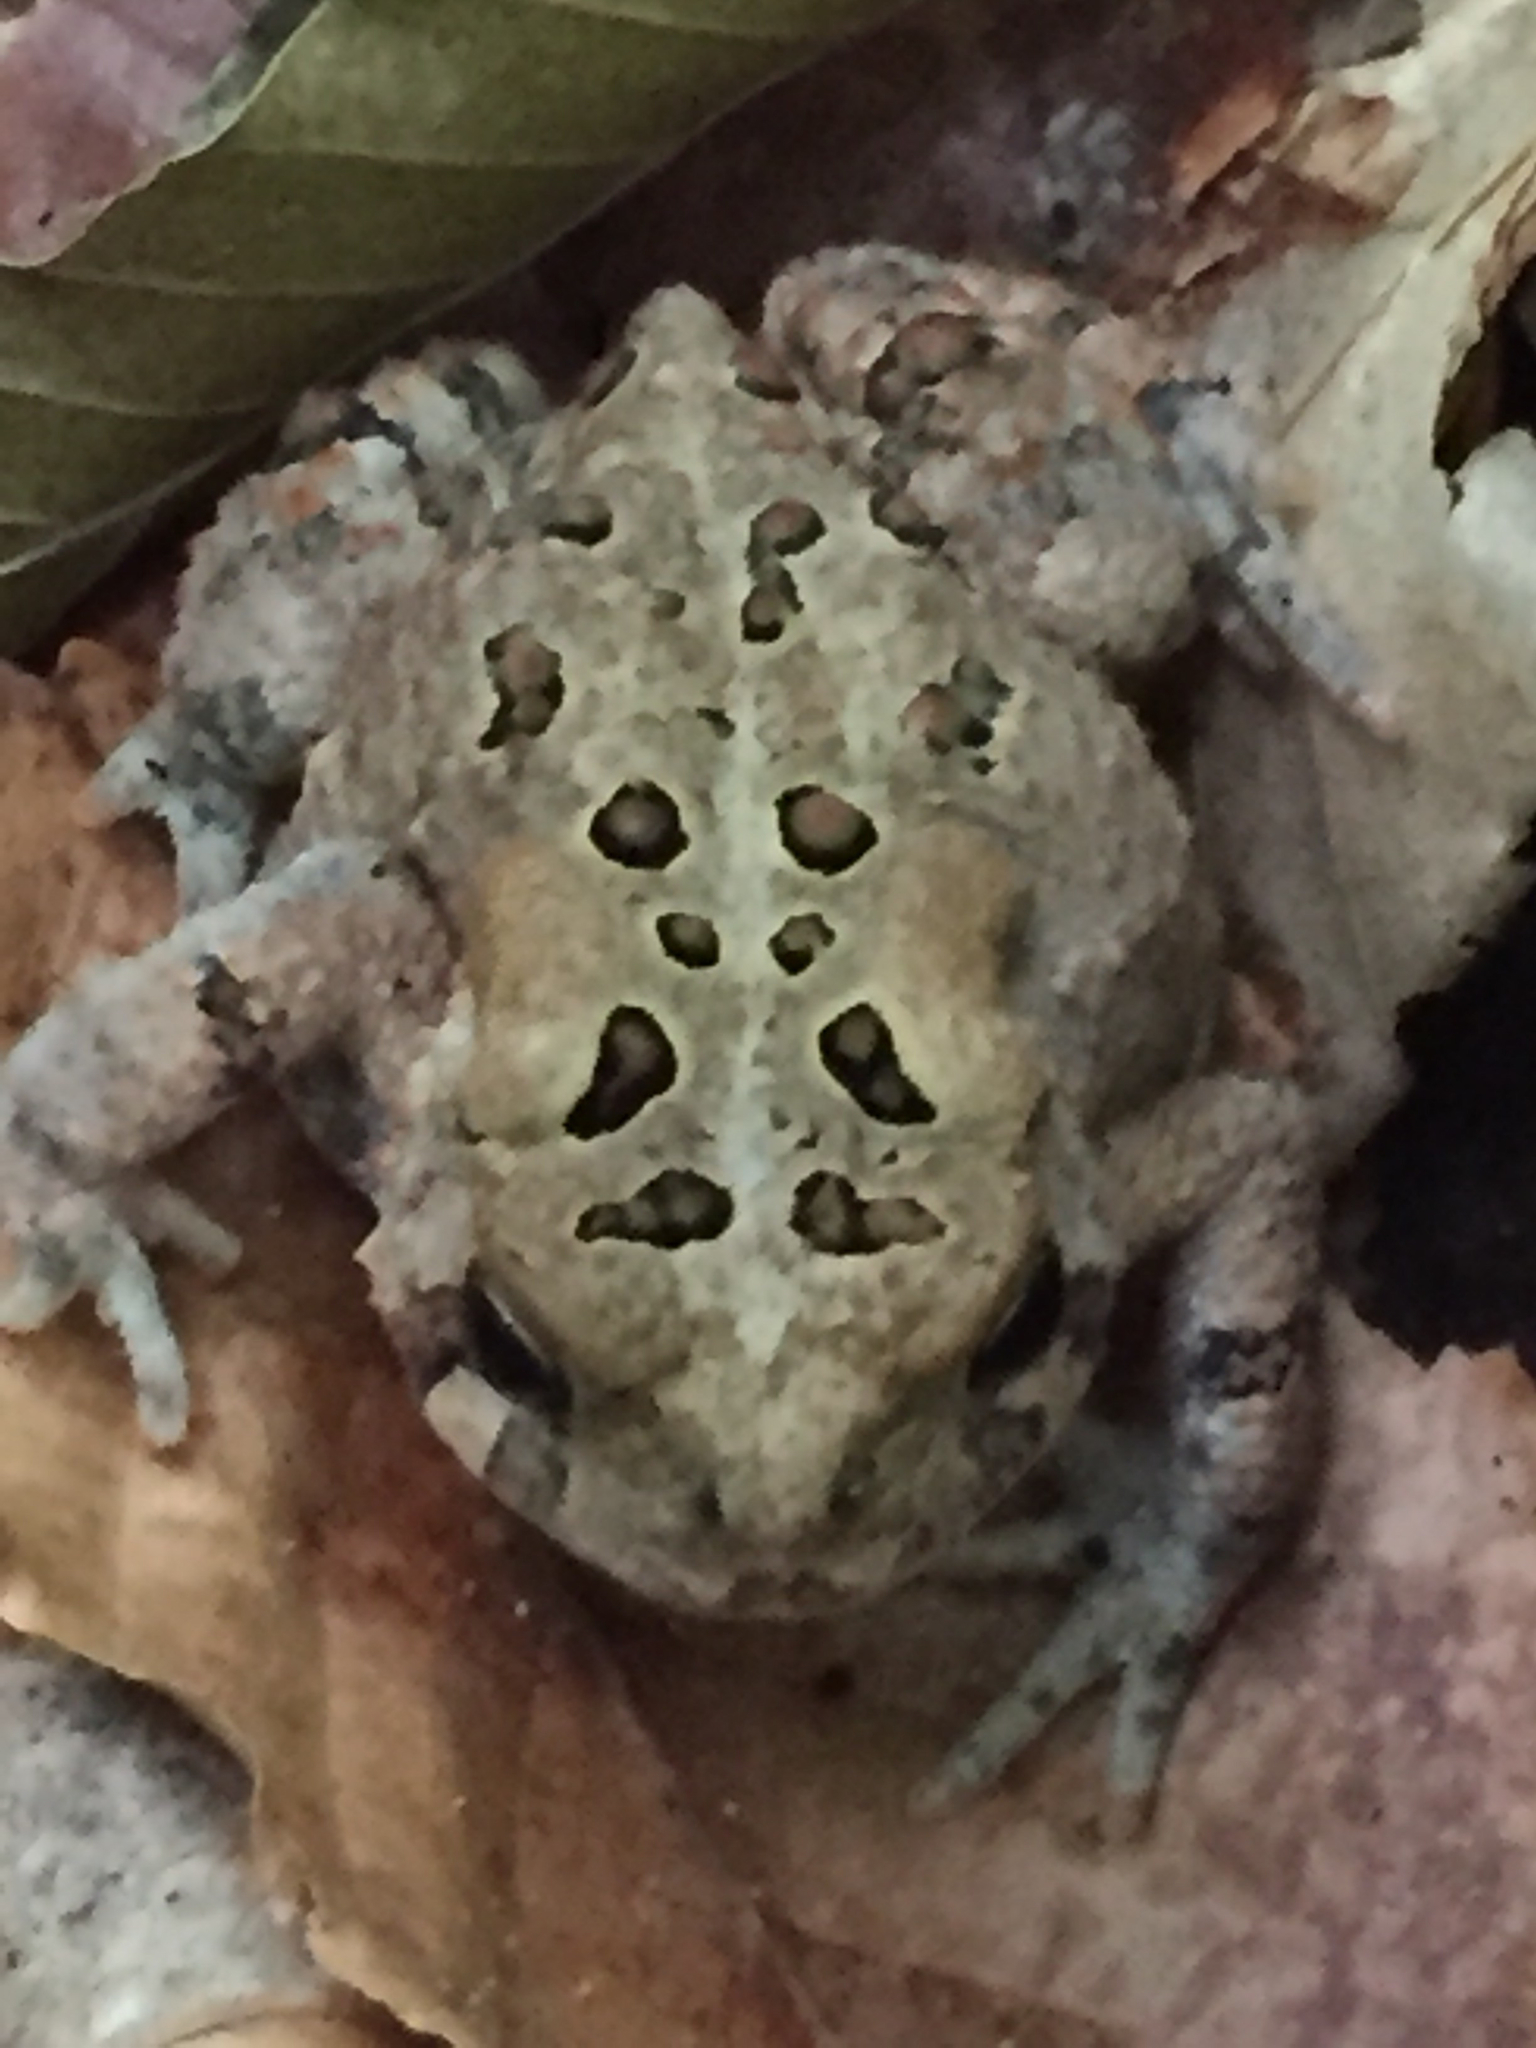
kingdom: Animalia
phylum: Chordata
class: Amphibia
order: Anura
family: Bufonidae
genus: Anaxyrus
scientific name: Anaxyrus americanus
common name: American toad
